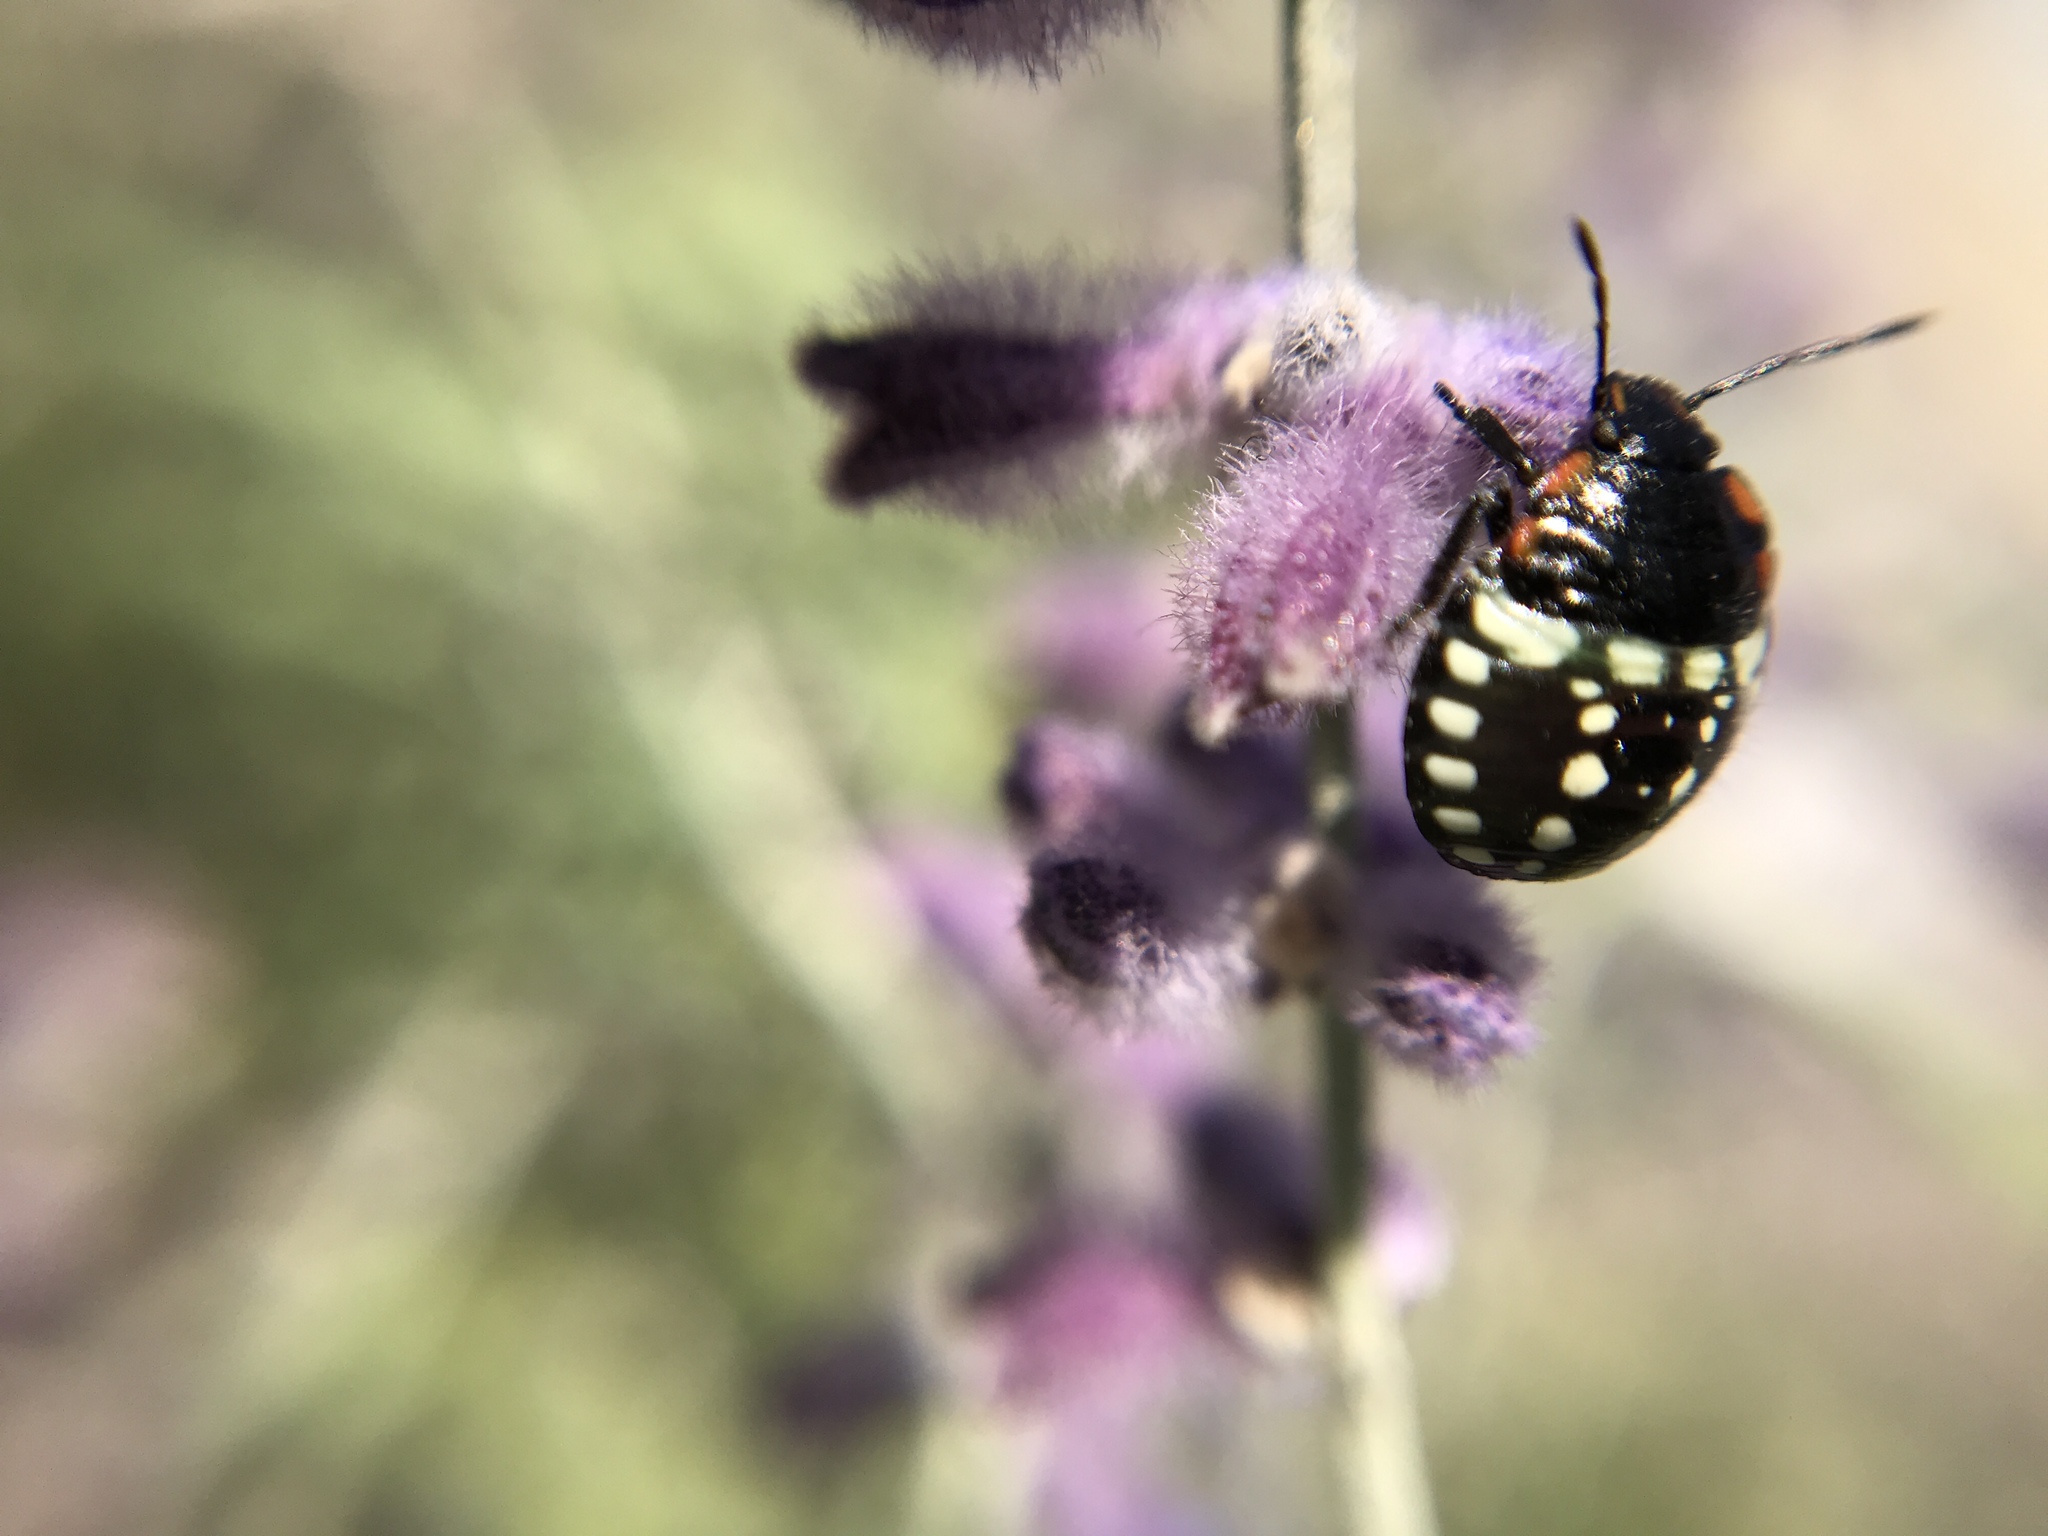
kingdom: Animalia
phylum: Arthropoda
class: Insecta
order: Hemiptera
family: Pentatomidae
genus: Nezara
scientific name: Nezara viridula
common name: Southern green stink bug
